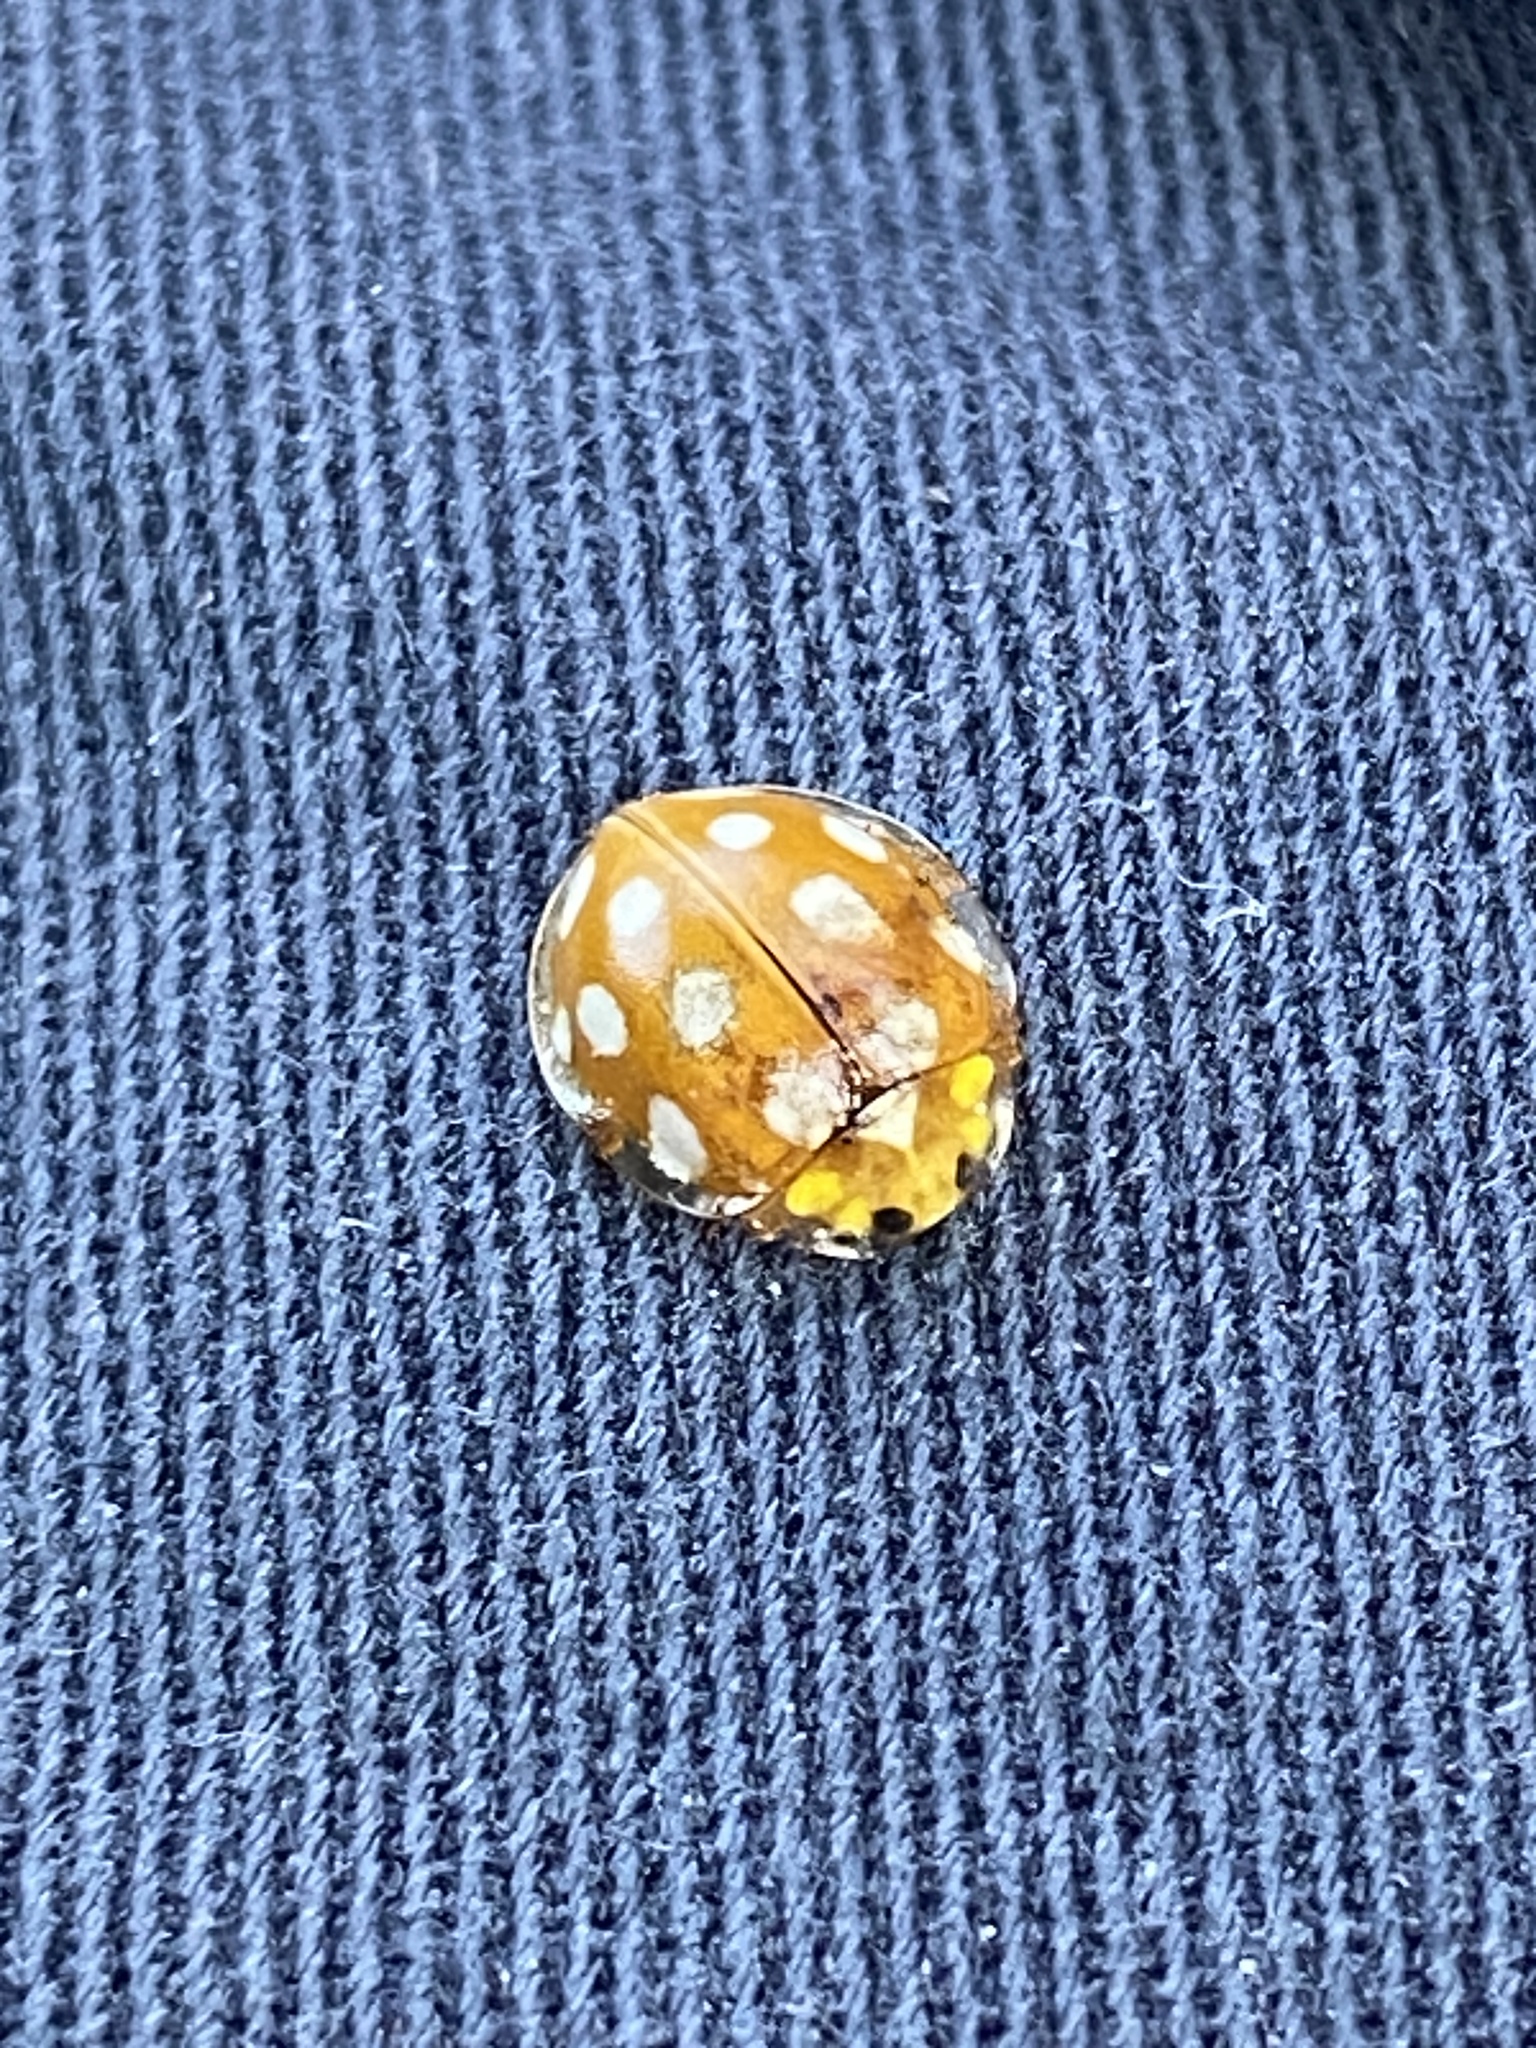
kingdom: Animalia
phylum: Arthropoda
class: Insecta
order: Coleoptera
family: Coccinellidae
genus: Halyzia
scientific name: Halyzia sedecimguttata
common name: Orange ladybird
